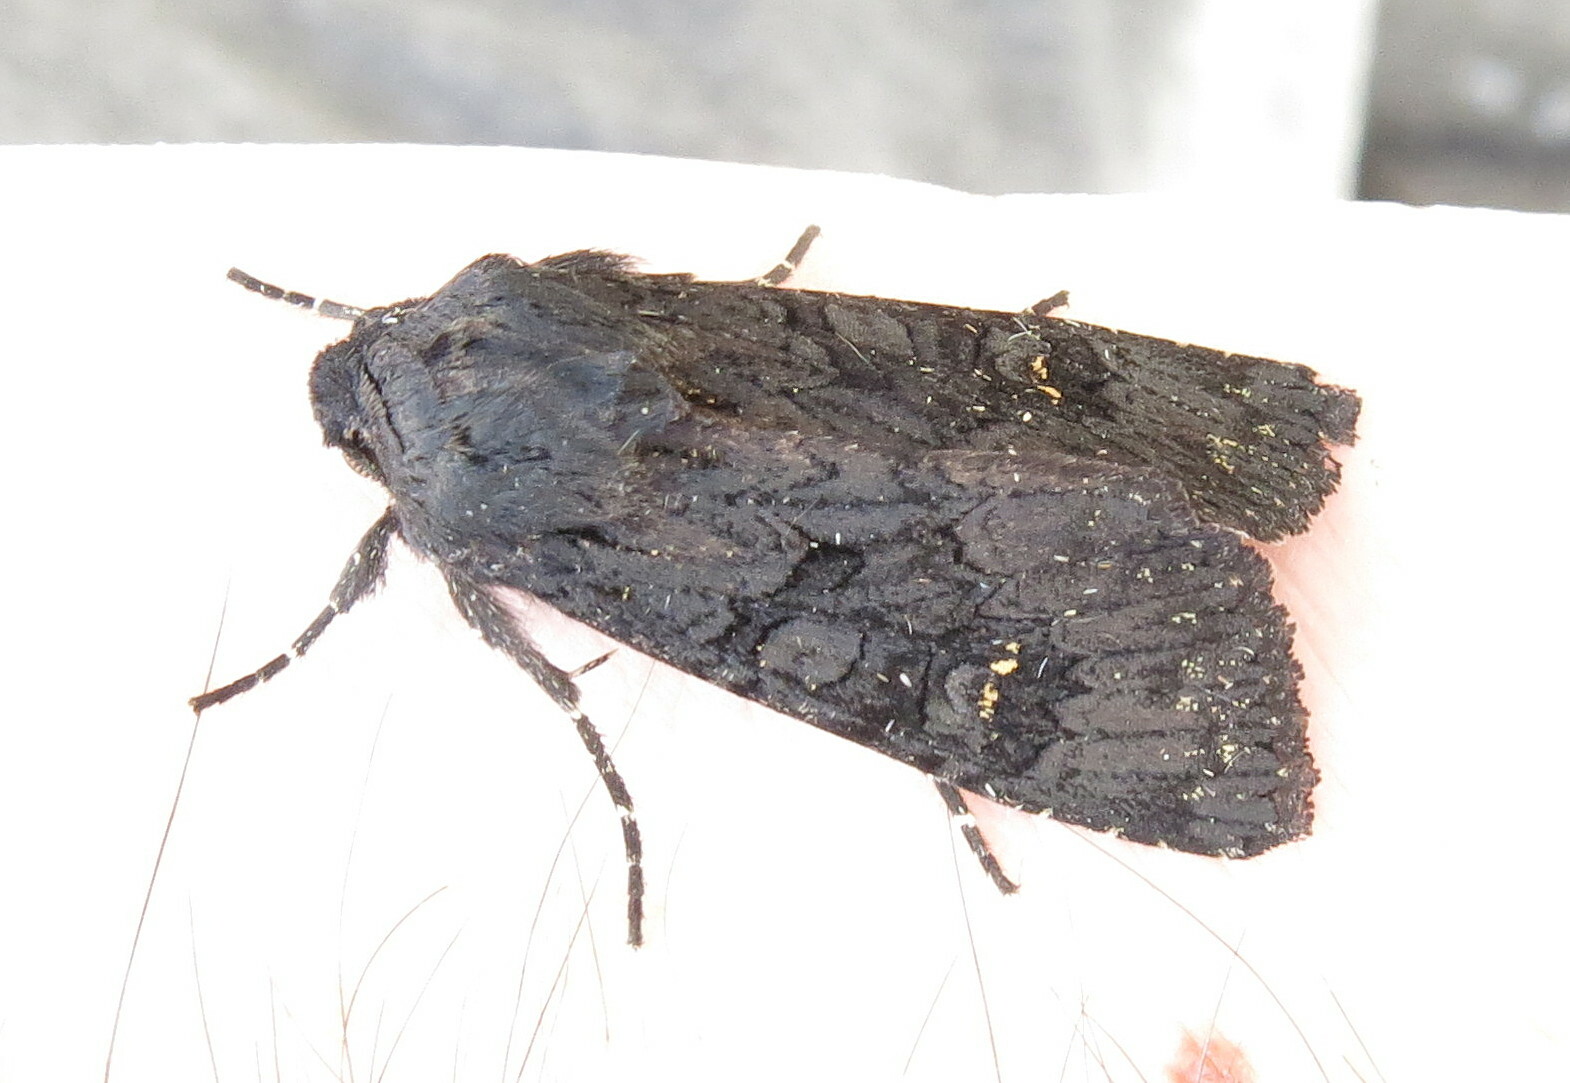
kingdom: Animalia
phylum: Arthropoda
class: Insecta
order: Lepidoptera
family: Noctuidae
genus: Aporophyla
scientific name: Aporophyla nigra
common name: Black rustic
